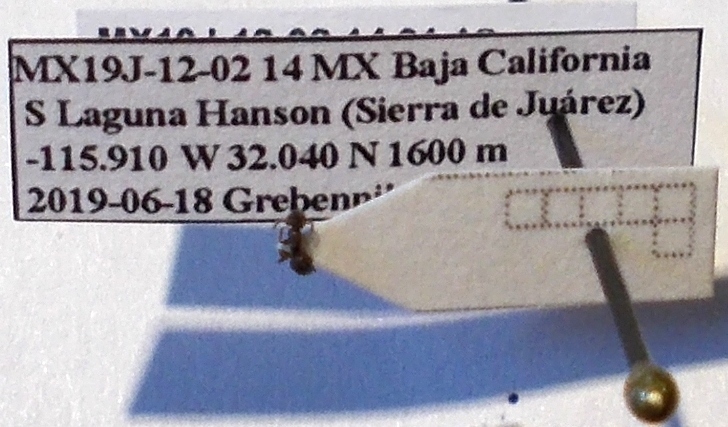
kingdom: Animalia
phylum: Arthropoda
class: Insecta
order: Hymenoptera
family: Formicidae
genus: Tapinoma
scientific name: Tapinoma sessile
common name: Odorous house ant
